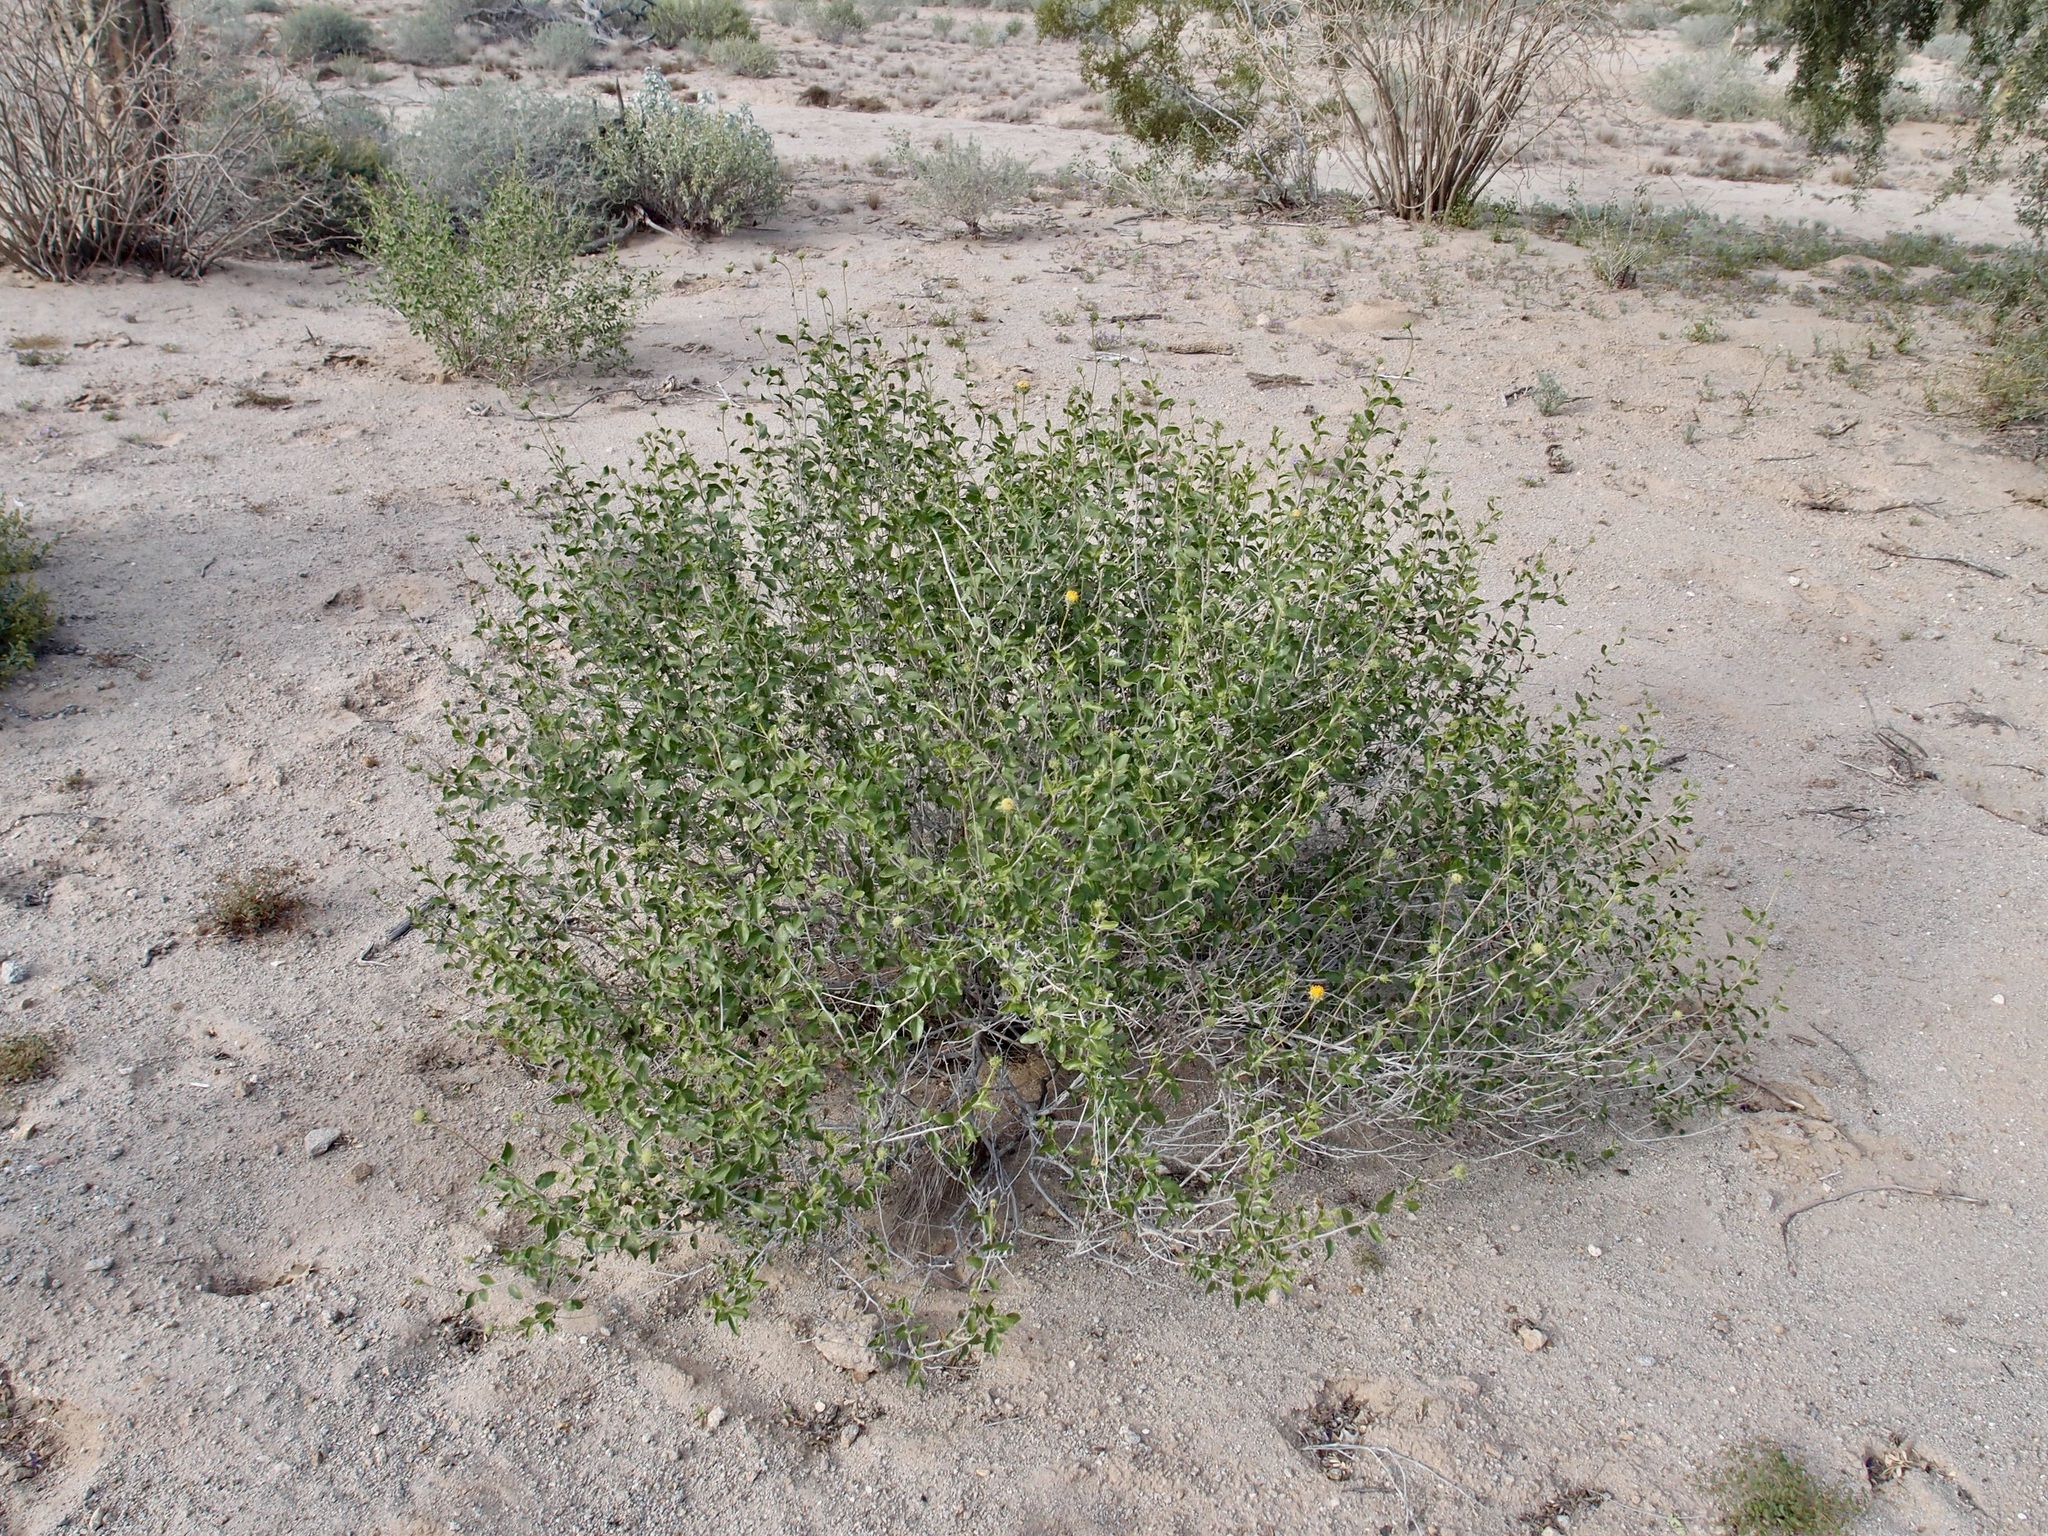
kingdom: Plantae
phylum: Tracheophyta
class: Magnoliopsida
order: Asterales
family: Asteraceae
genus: Encelia
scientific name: Encelia frutescens
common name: Bush encelia
